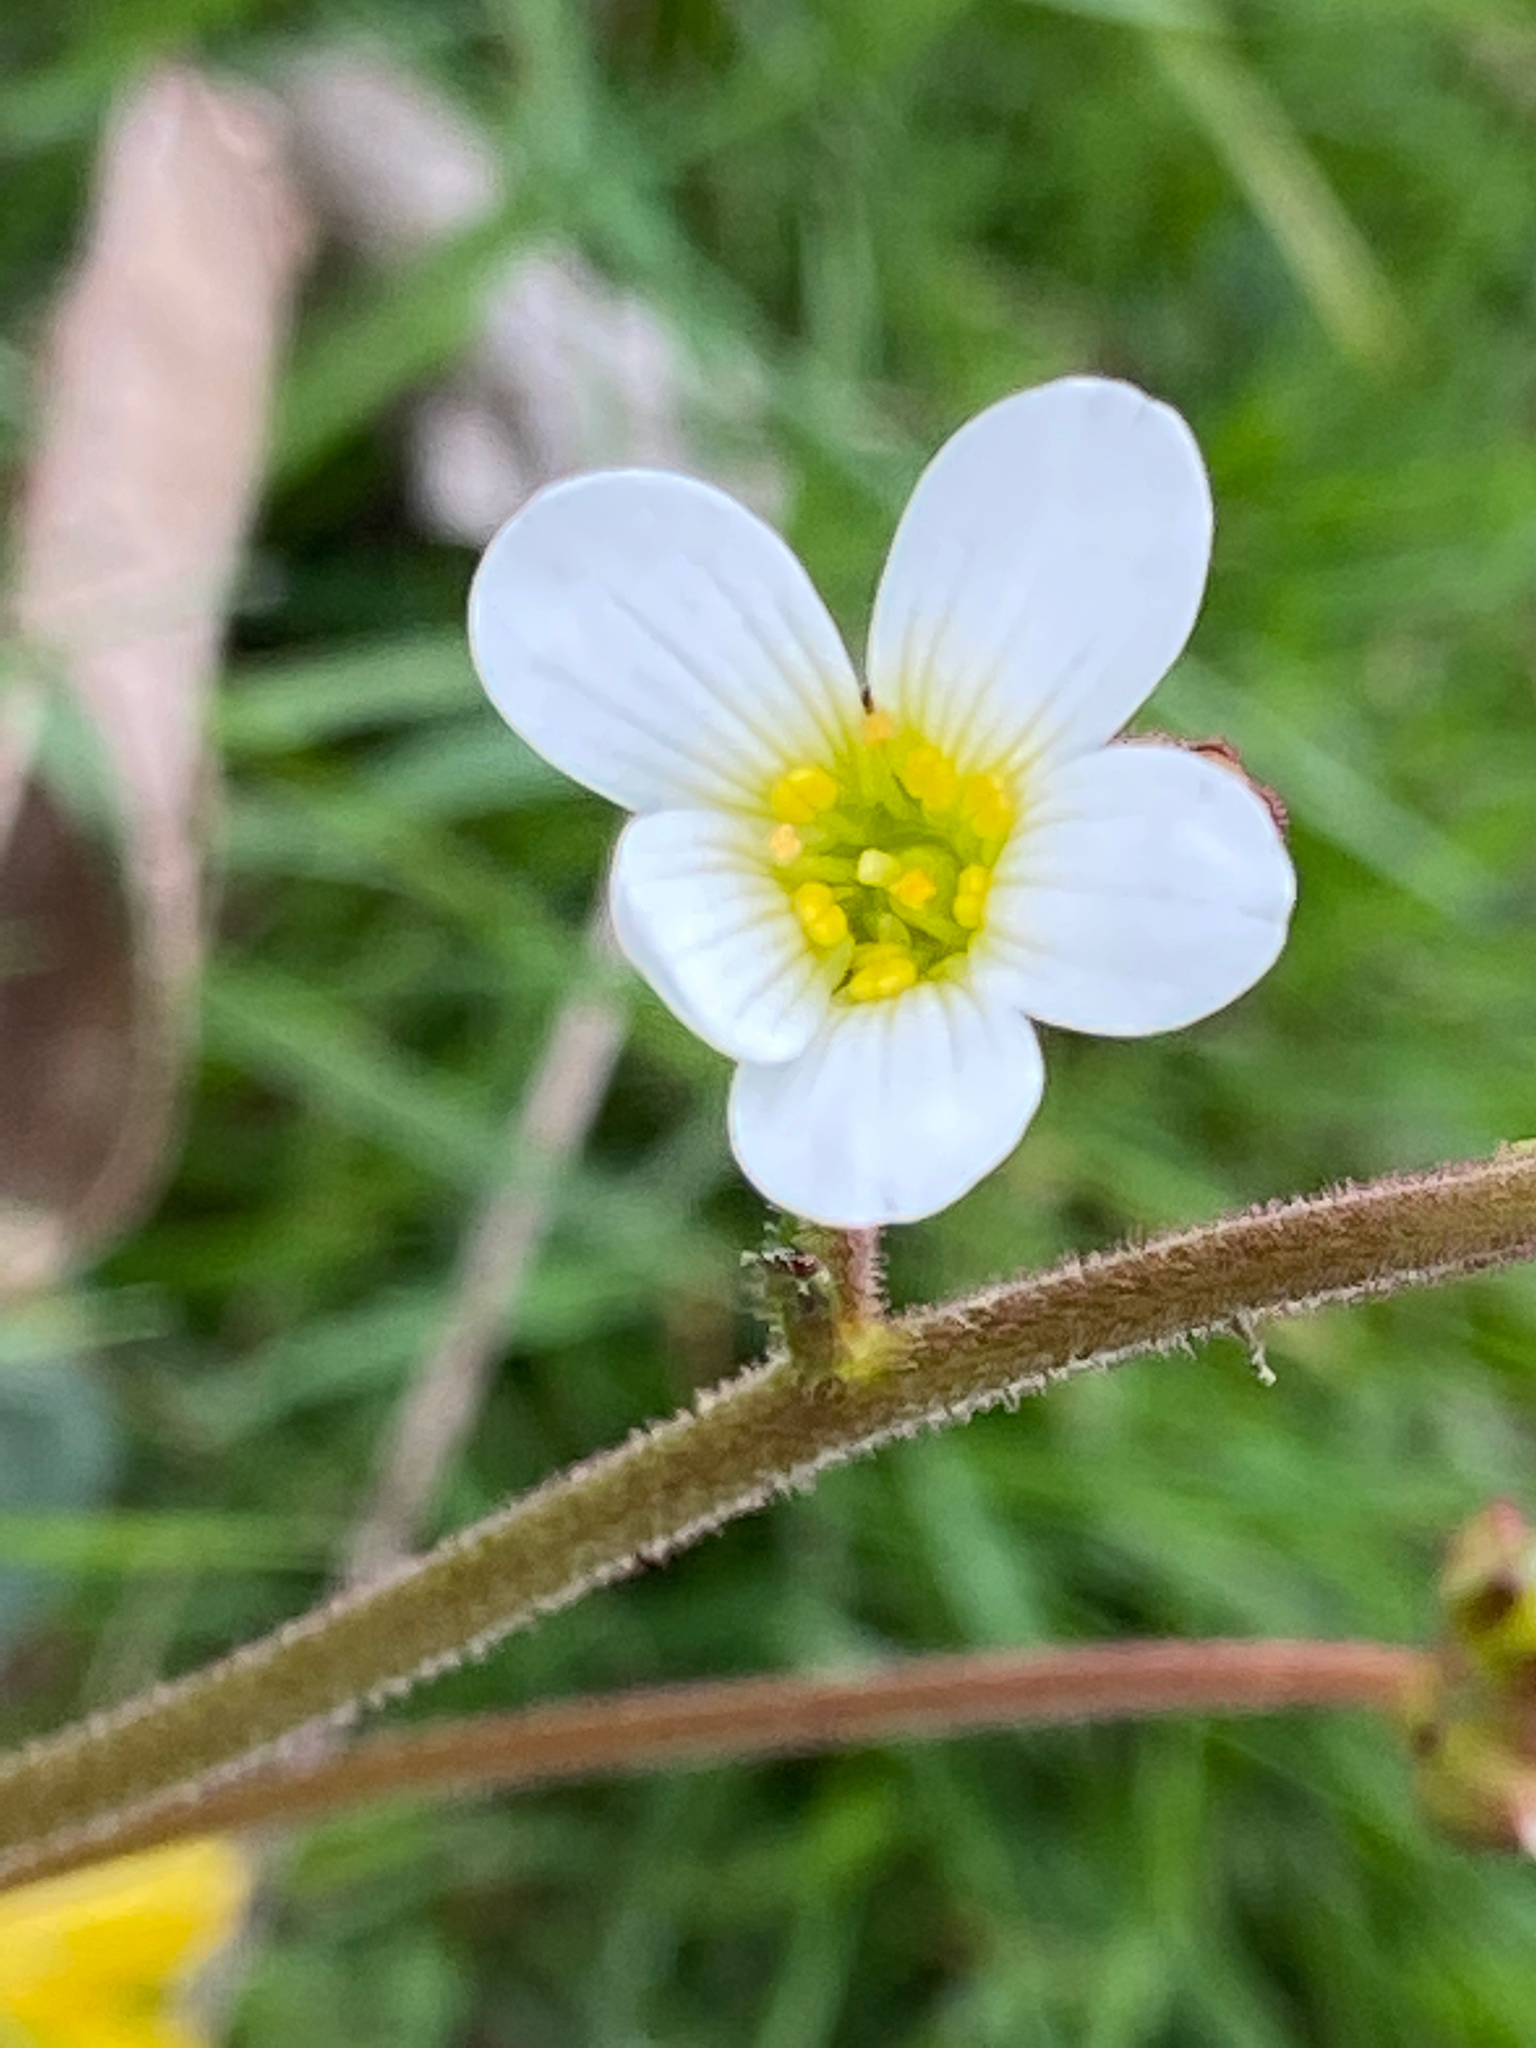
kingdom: Plantae
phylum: Tracheophyta
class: Magnoliopsida
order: Saxifragales
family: Saxifragaceae
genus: Saxifraga
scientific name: Saxifraga granulata
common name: Meadow saxifrage
